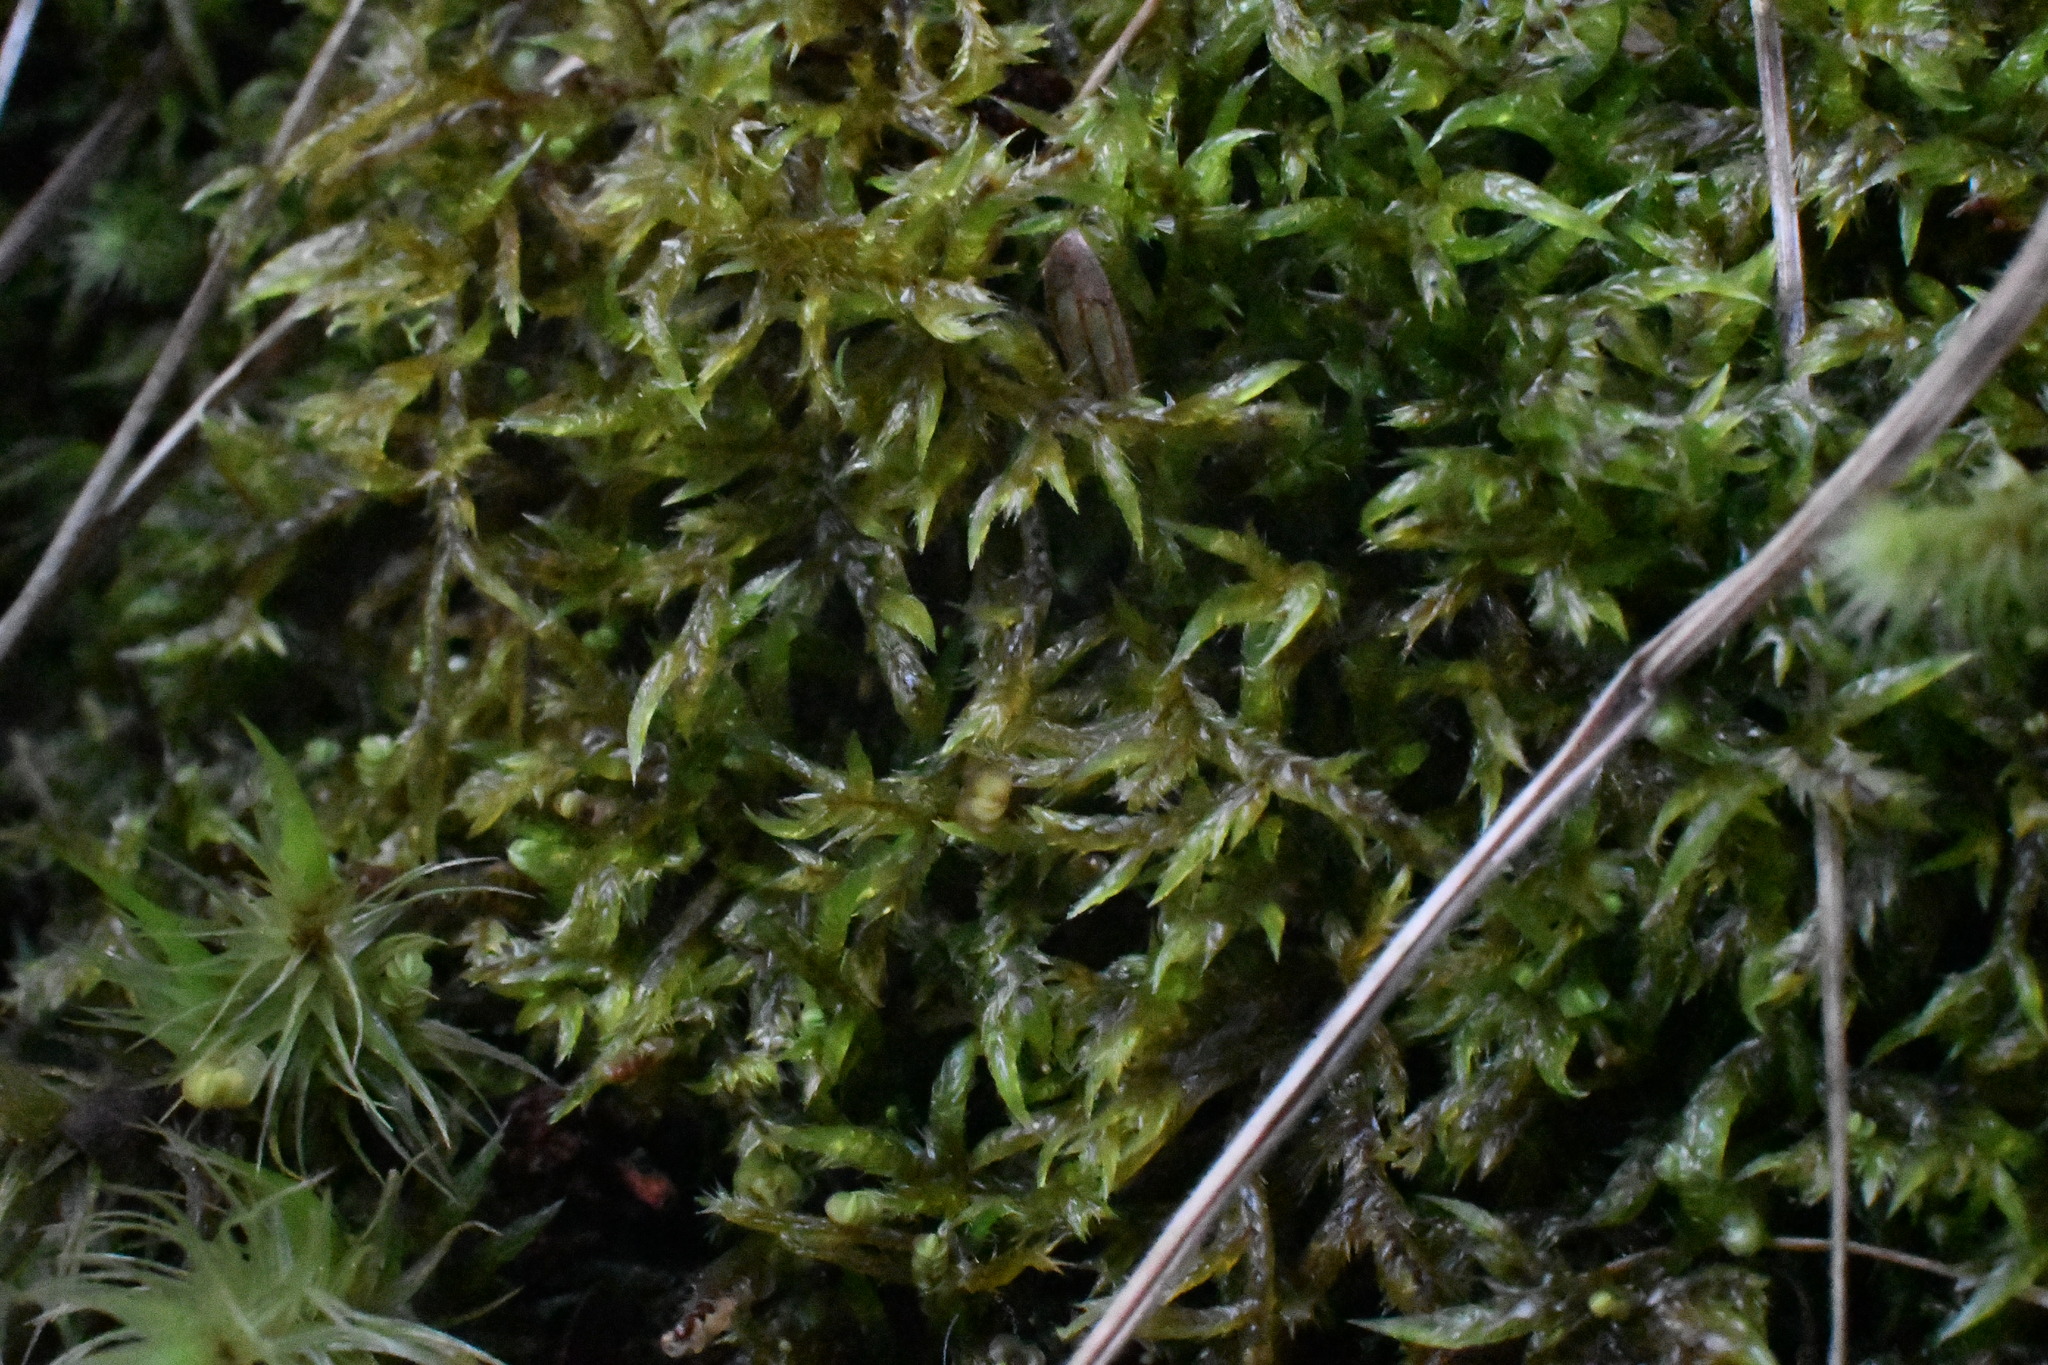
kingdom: Plantae
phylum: Bryophyta
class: Bryopsida
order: Hypnales
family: Pylaisiadelphaceae
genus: Wijkia
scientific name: Wijkia extenuata
